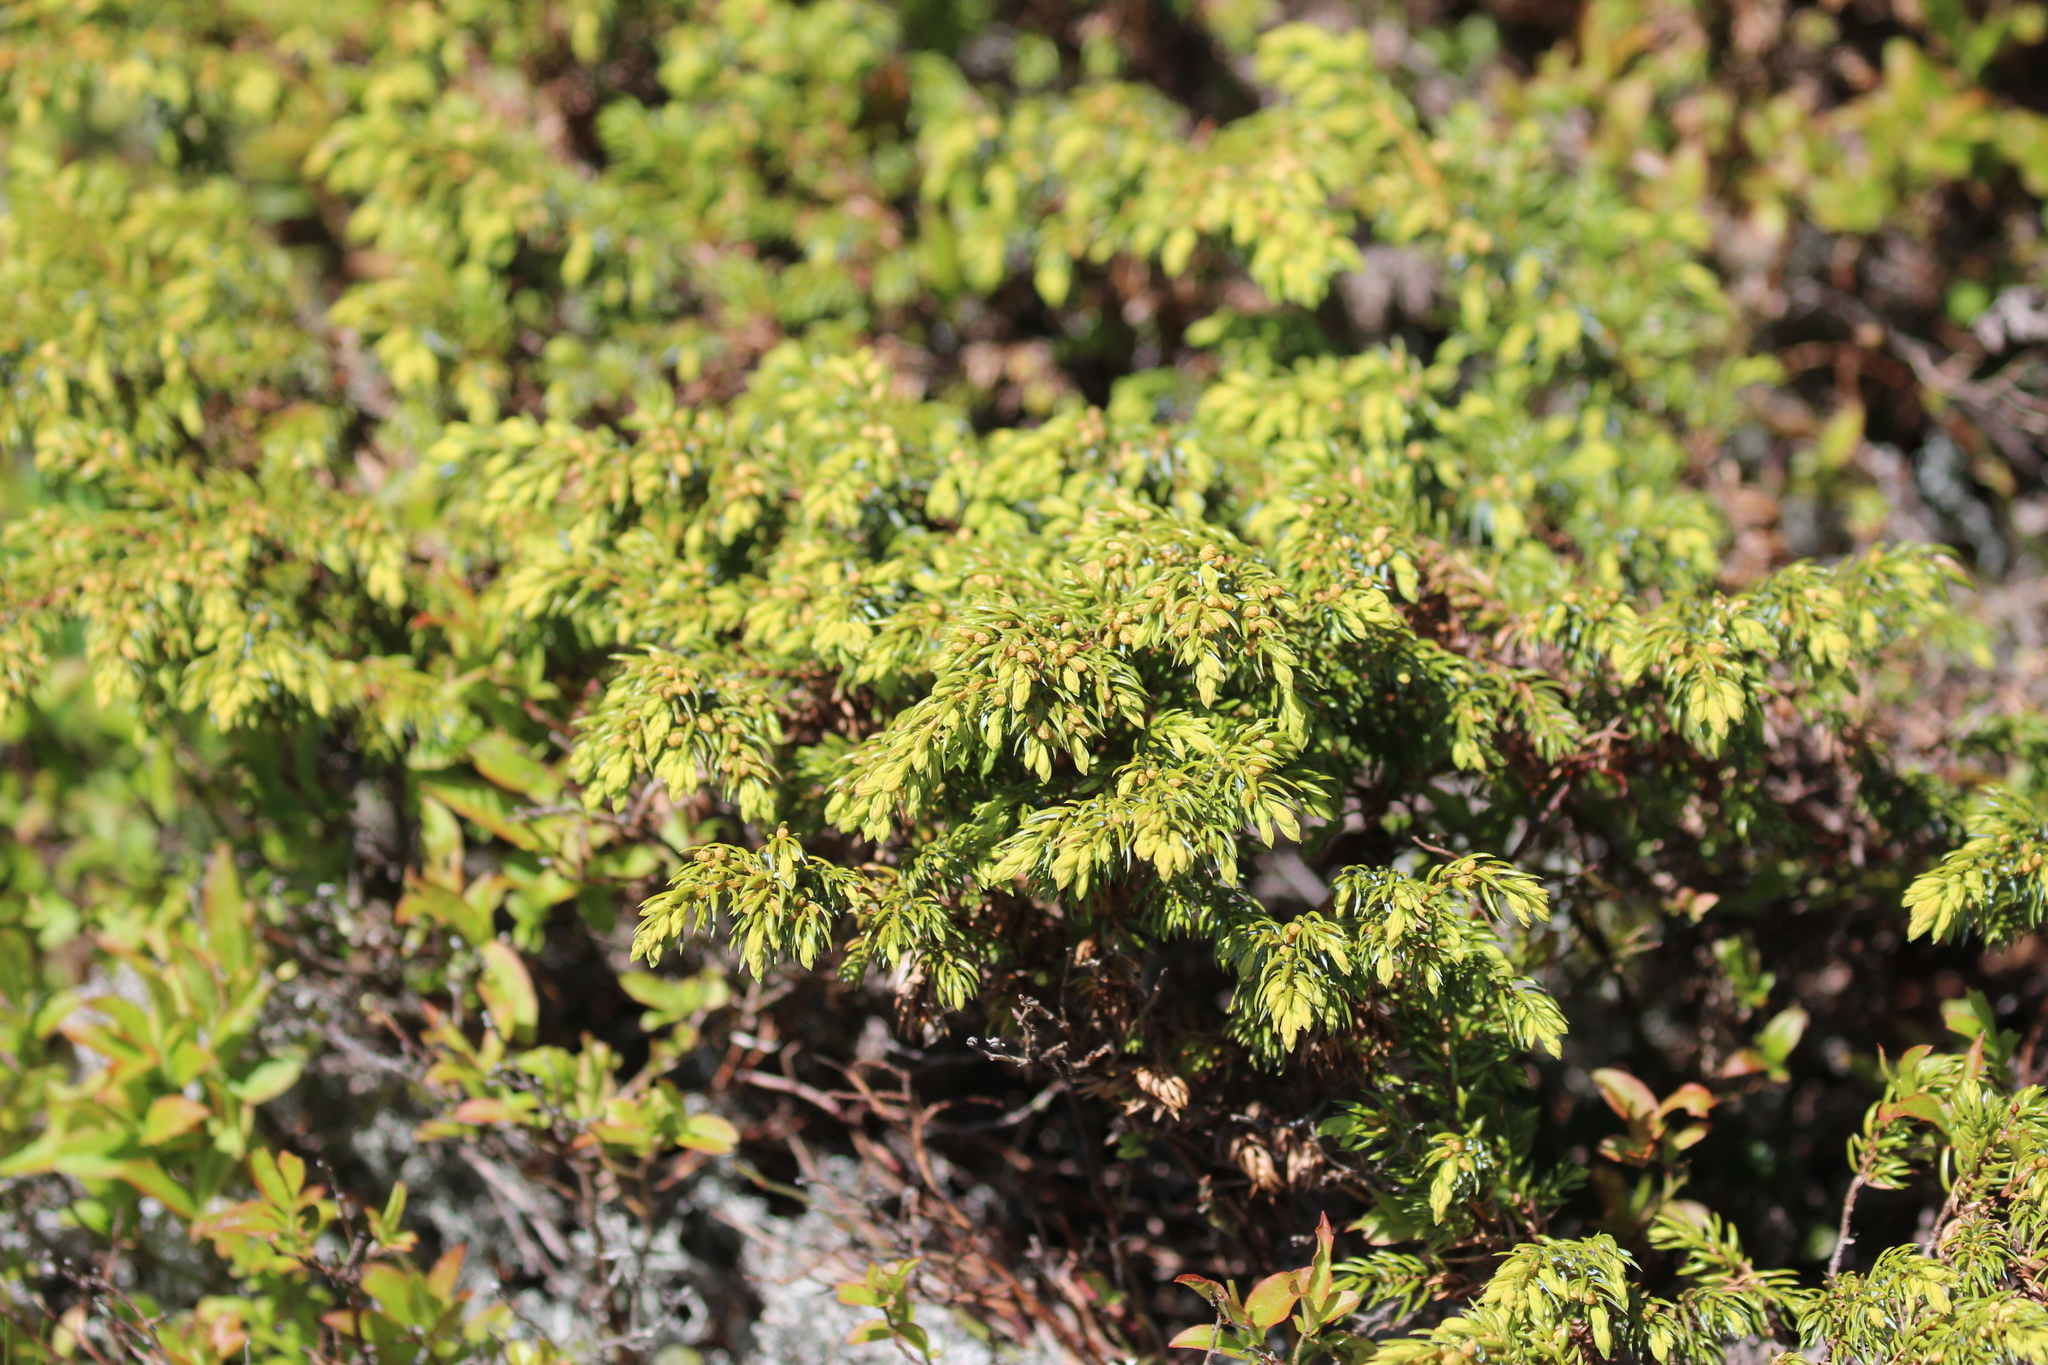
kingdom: Plantae
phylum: Tracheophyta
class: Pinopsida
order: Pinales
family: Cupressaceae
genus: Juniperus
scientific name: Juniperus communis
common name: Common juniper
